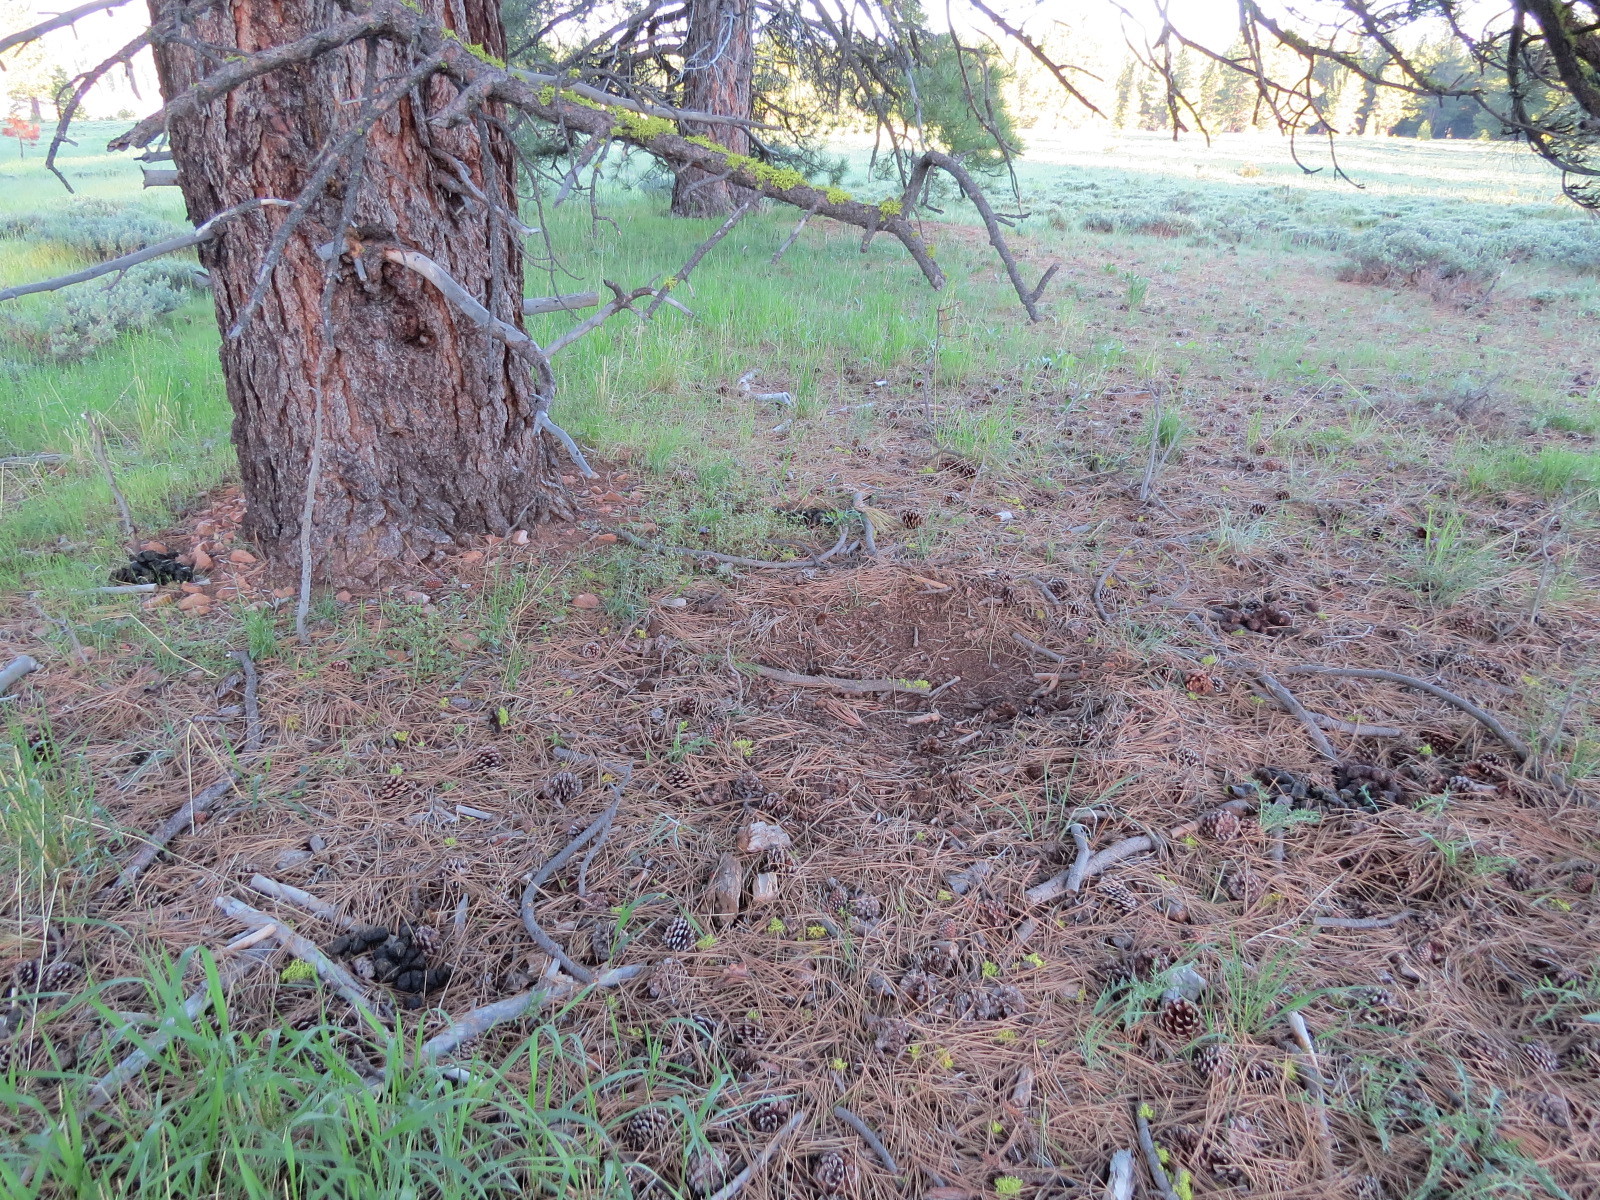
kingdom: Animalia
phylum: Chordata
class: Mammalia
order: Carnivora
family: Ursidae
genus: Ursus
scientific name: Ursus americanus
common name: American black bear
